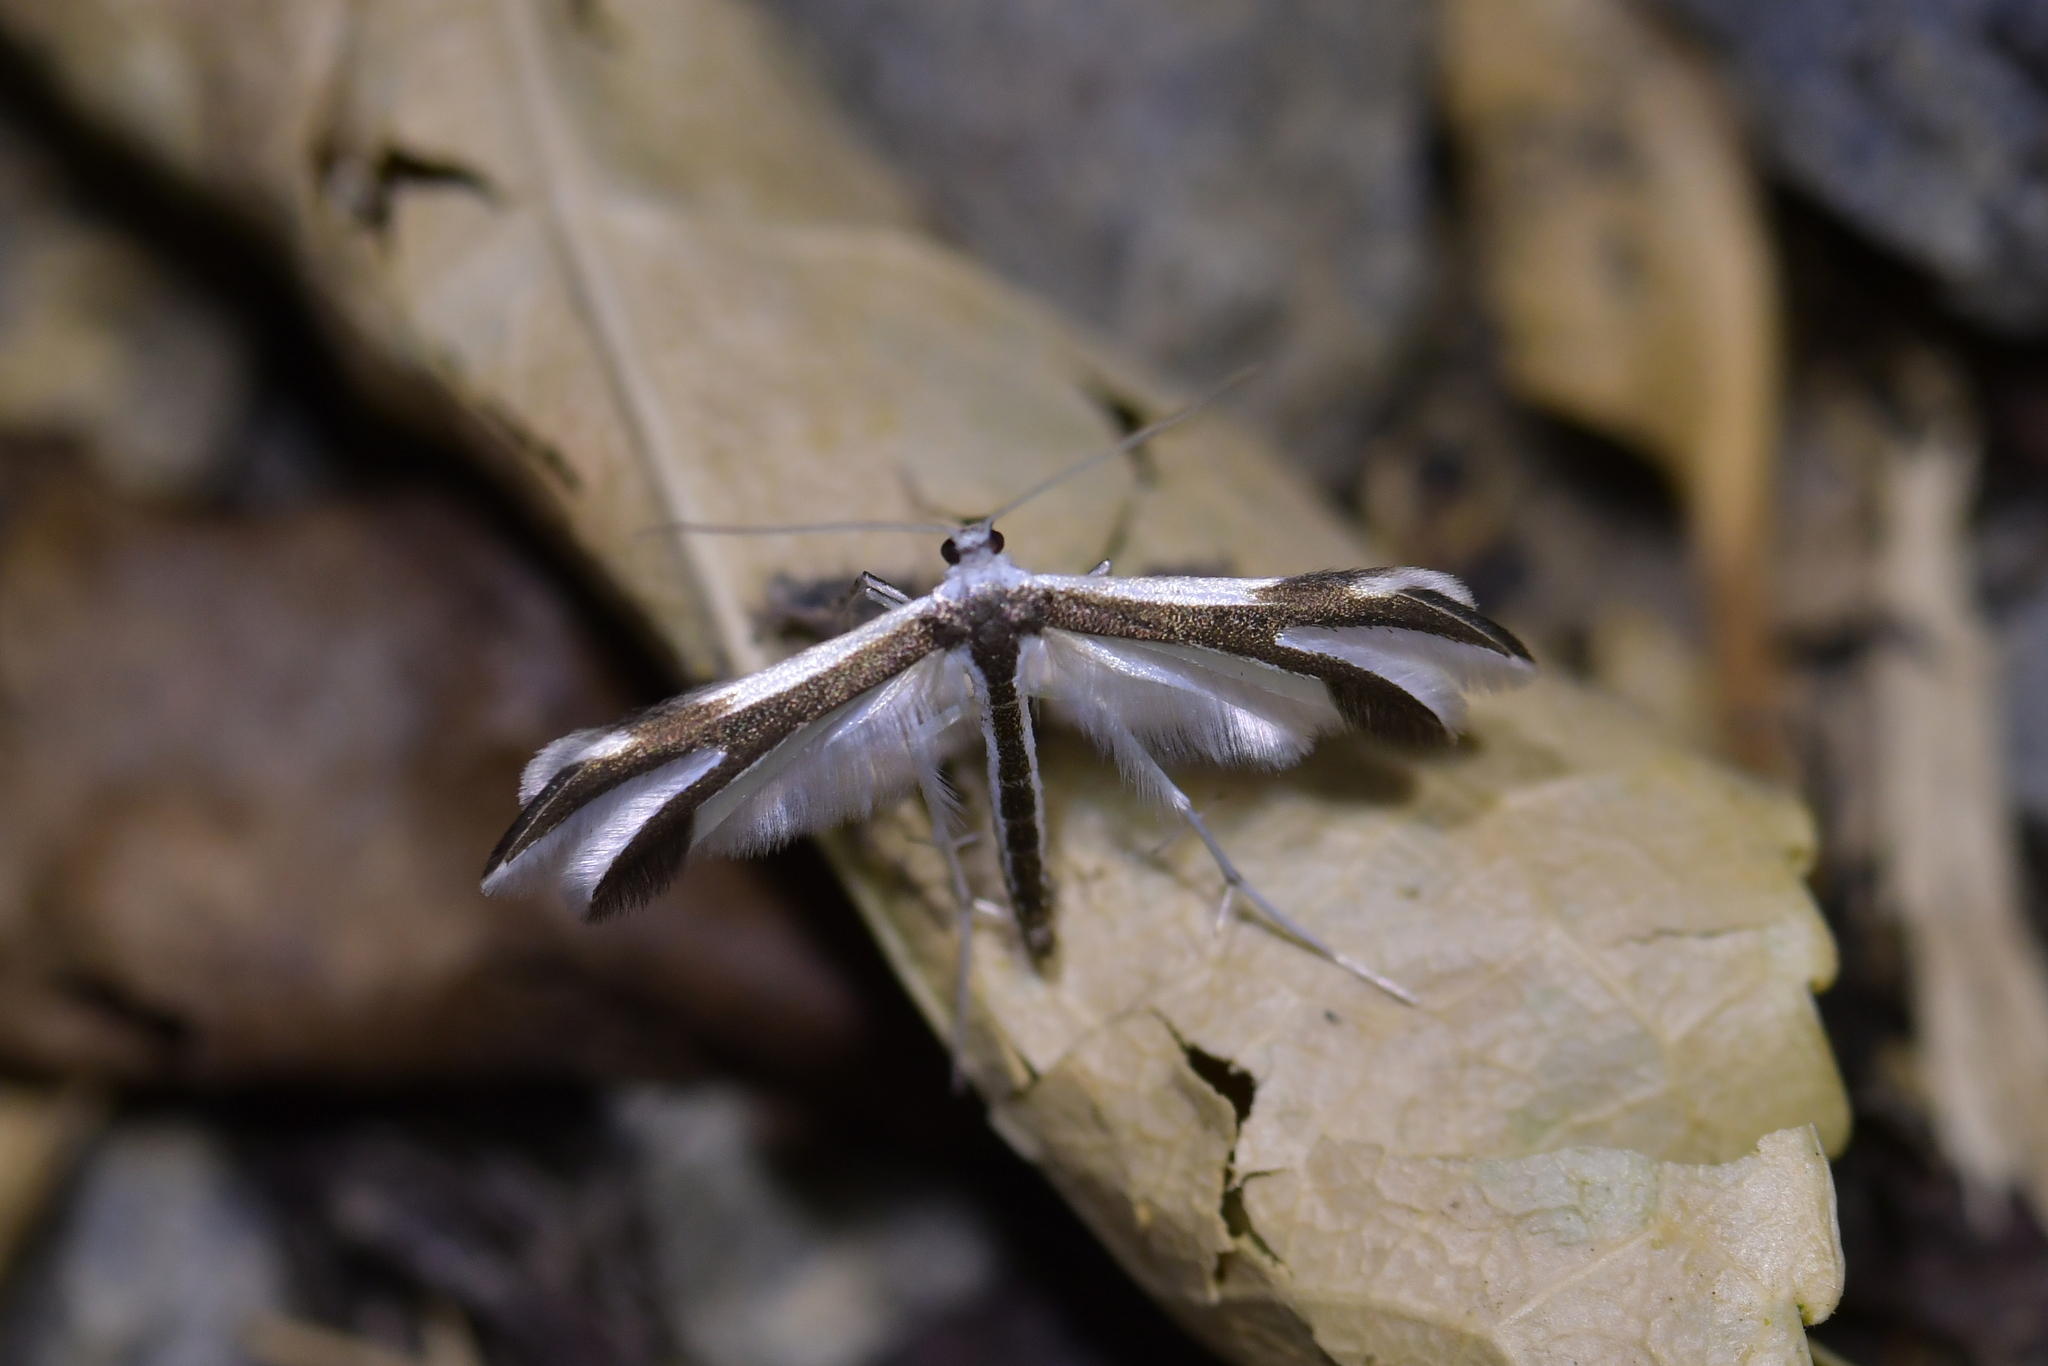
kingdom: Animalia
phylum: Arthropoda
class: Insecta
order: Lepidoptera
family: Pterophoridae
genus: Pterophorus
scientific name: Pterophorus furcatalis
